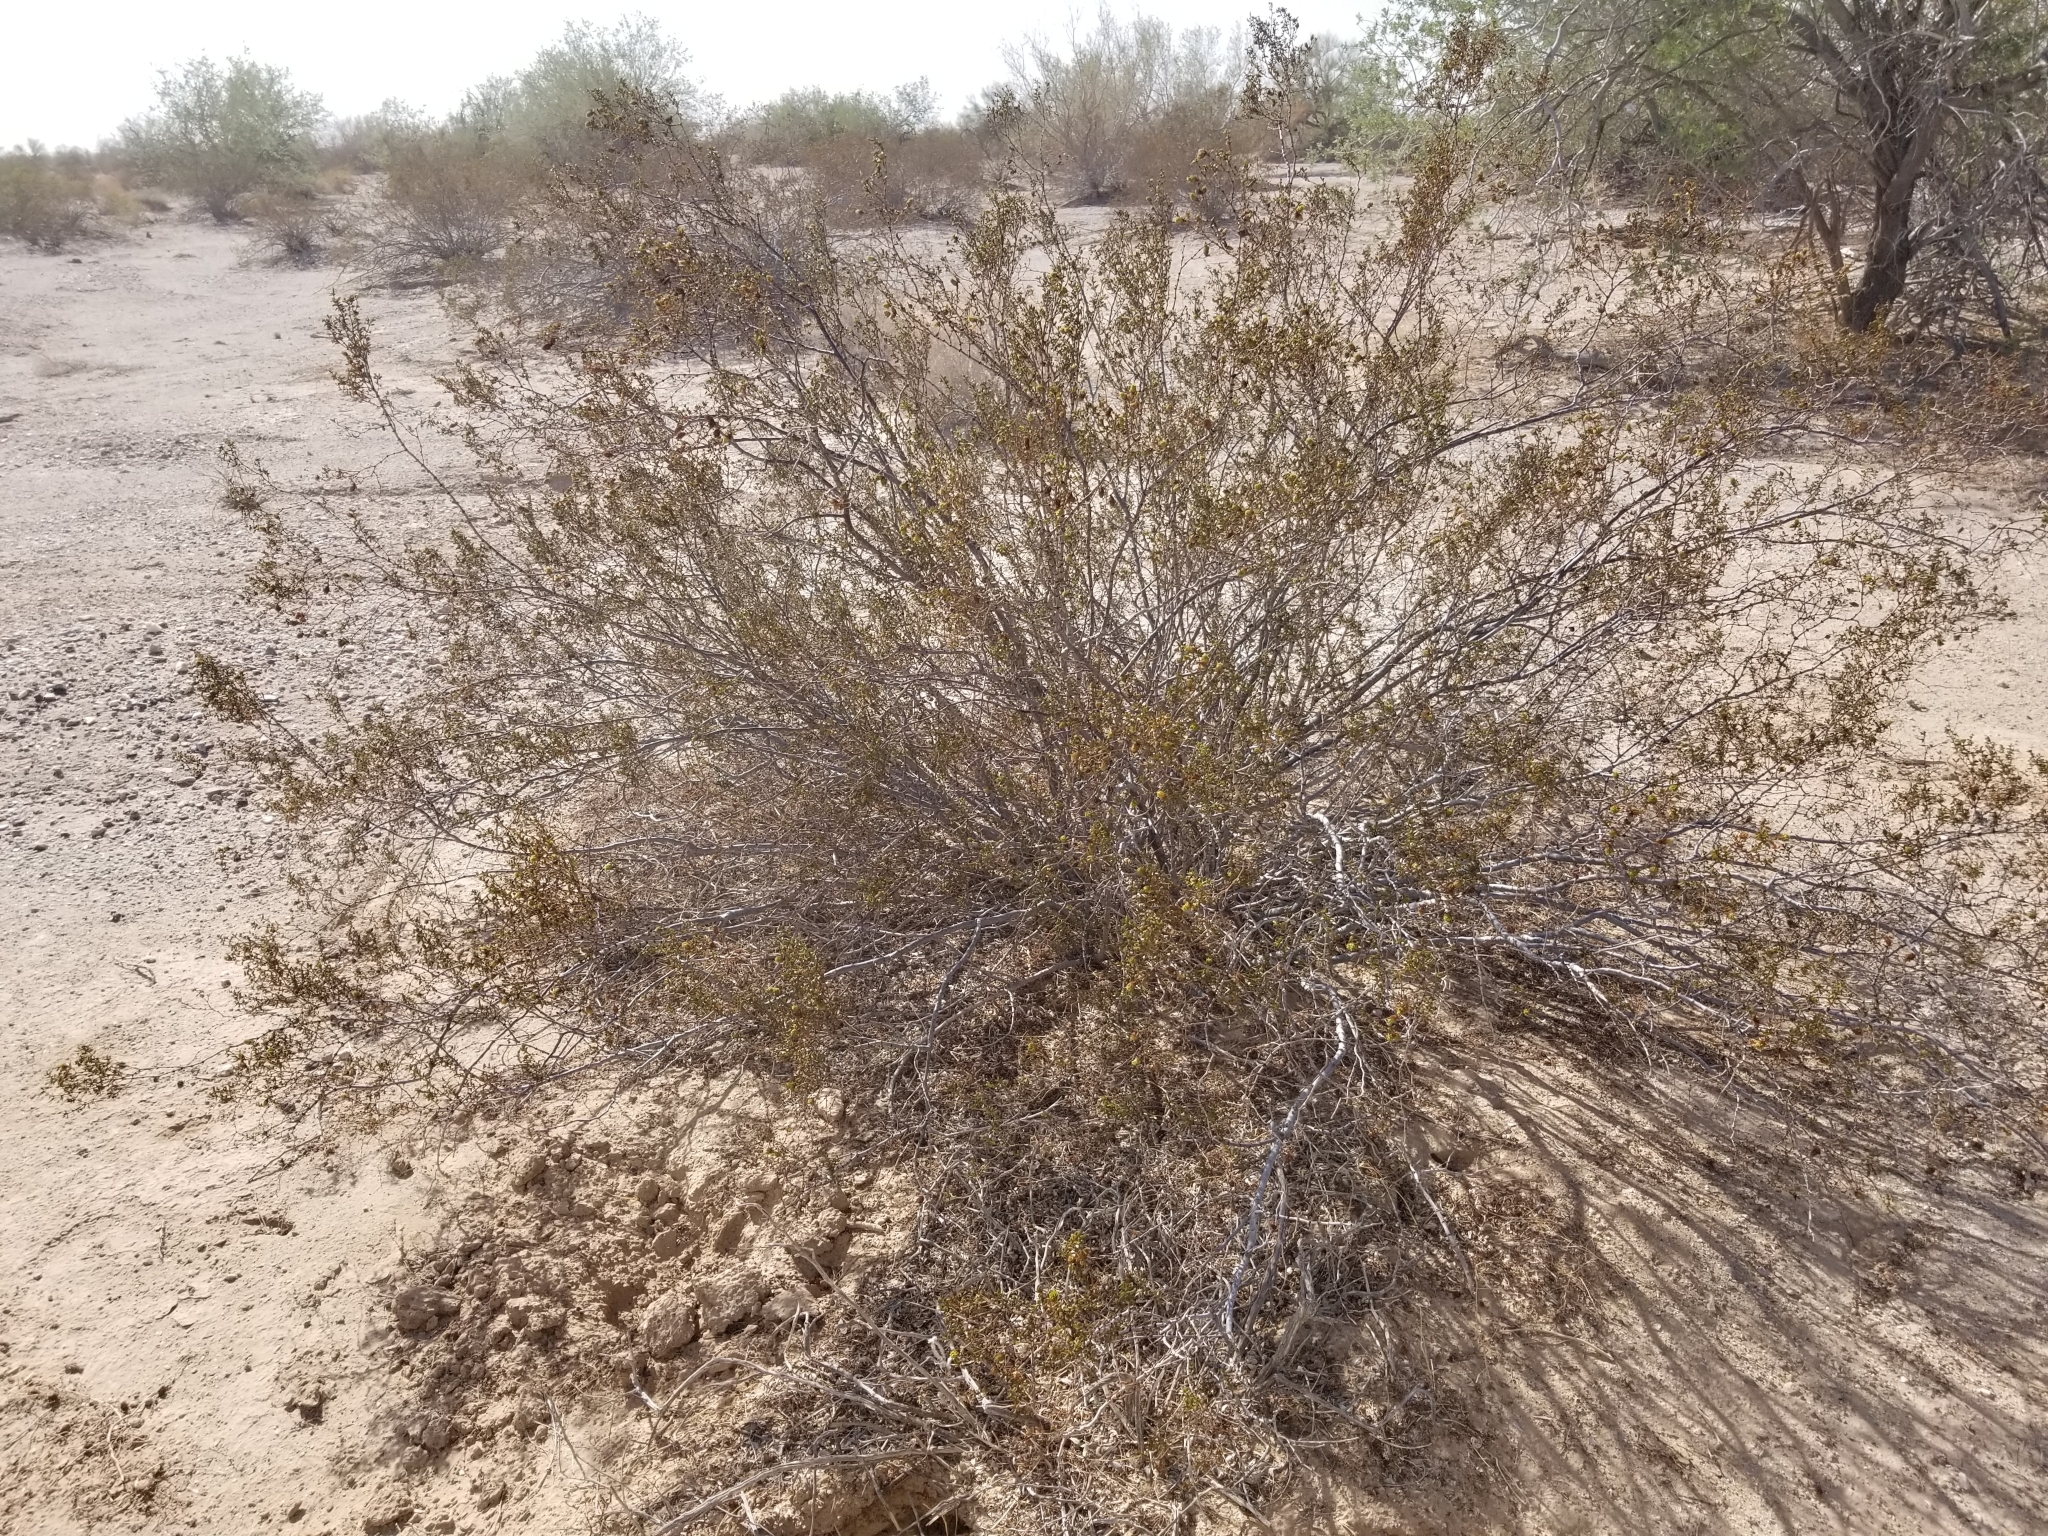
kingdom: Plantae
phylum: Tracheophyta
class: Magnoliopsida
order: Zygophyllales
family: Zygophyllaceae
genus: Larrea
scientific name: Larrea tridentata
